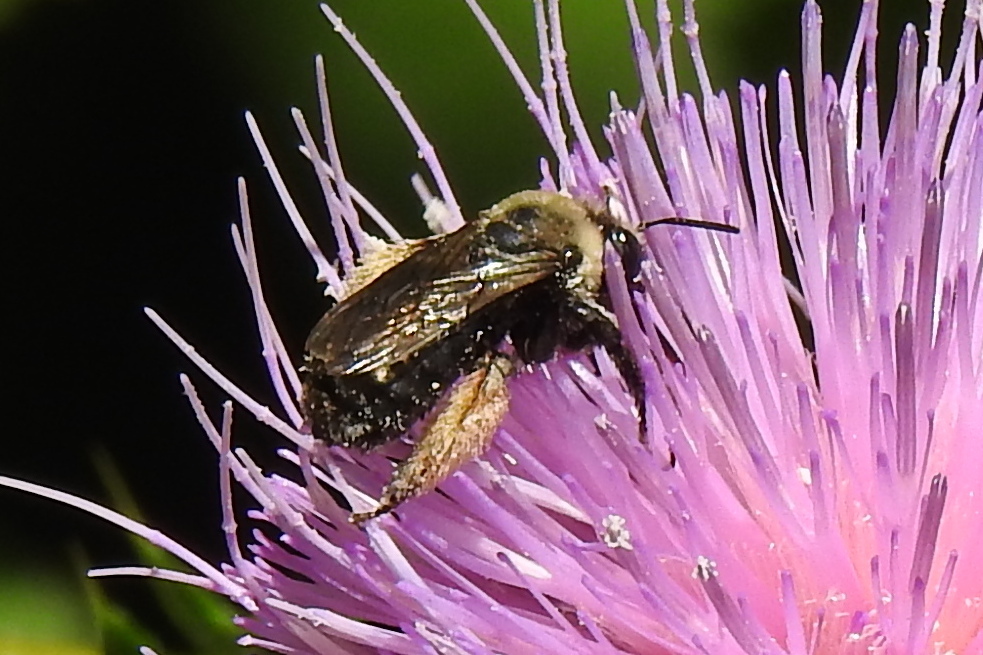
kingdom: Animalia
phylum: Arthropoda
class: Insecta
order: Hymenoptera
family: Apidae
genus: Melissodes
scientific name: Melissodes desponsus
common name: Thistle long-horned bee
